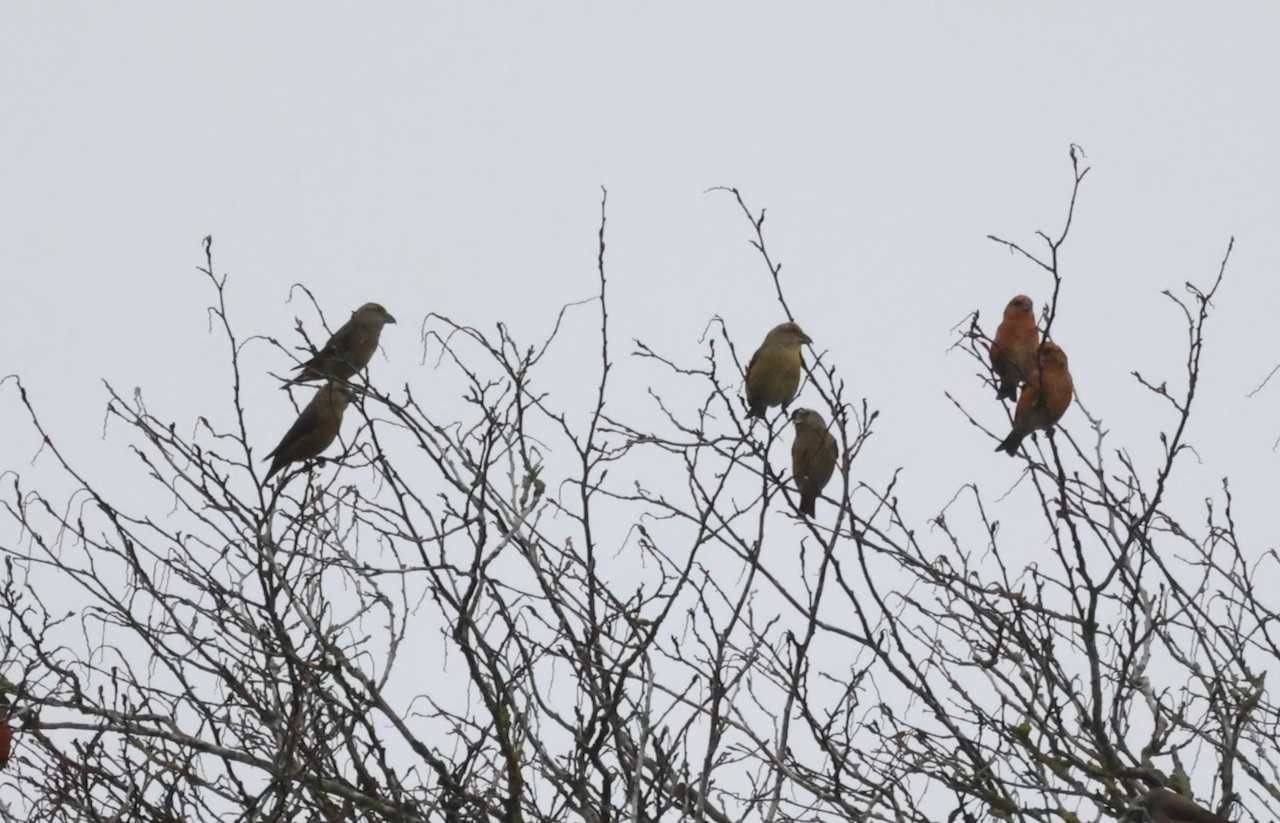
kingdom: Animalia
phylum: Chordata
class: Aves
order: Passeriformes
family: Fringillidae
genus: Loxia
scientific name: Loxia curvirostra
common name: Red crossbill
